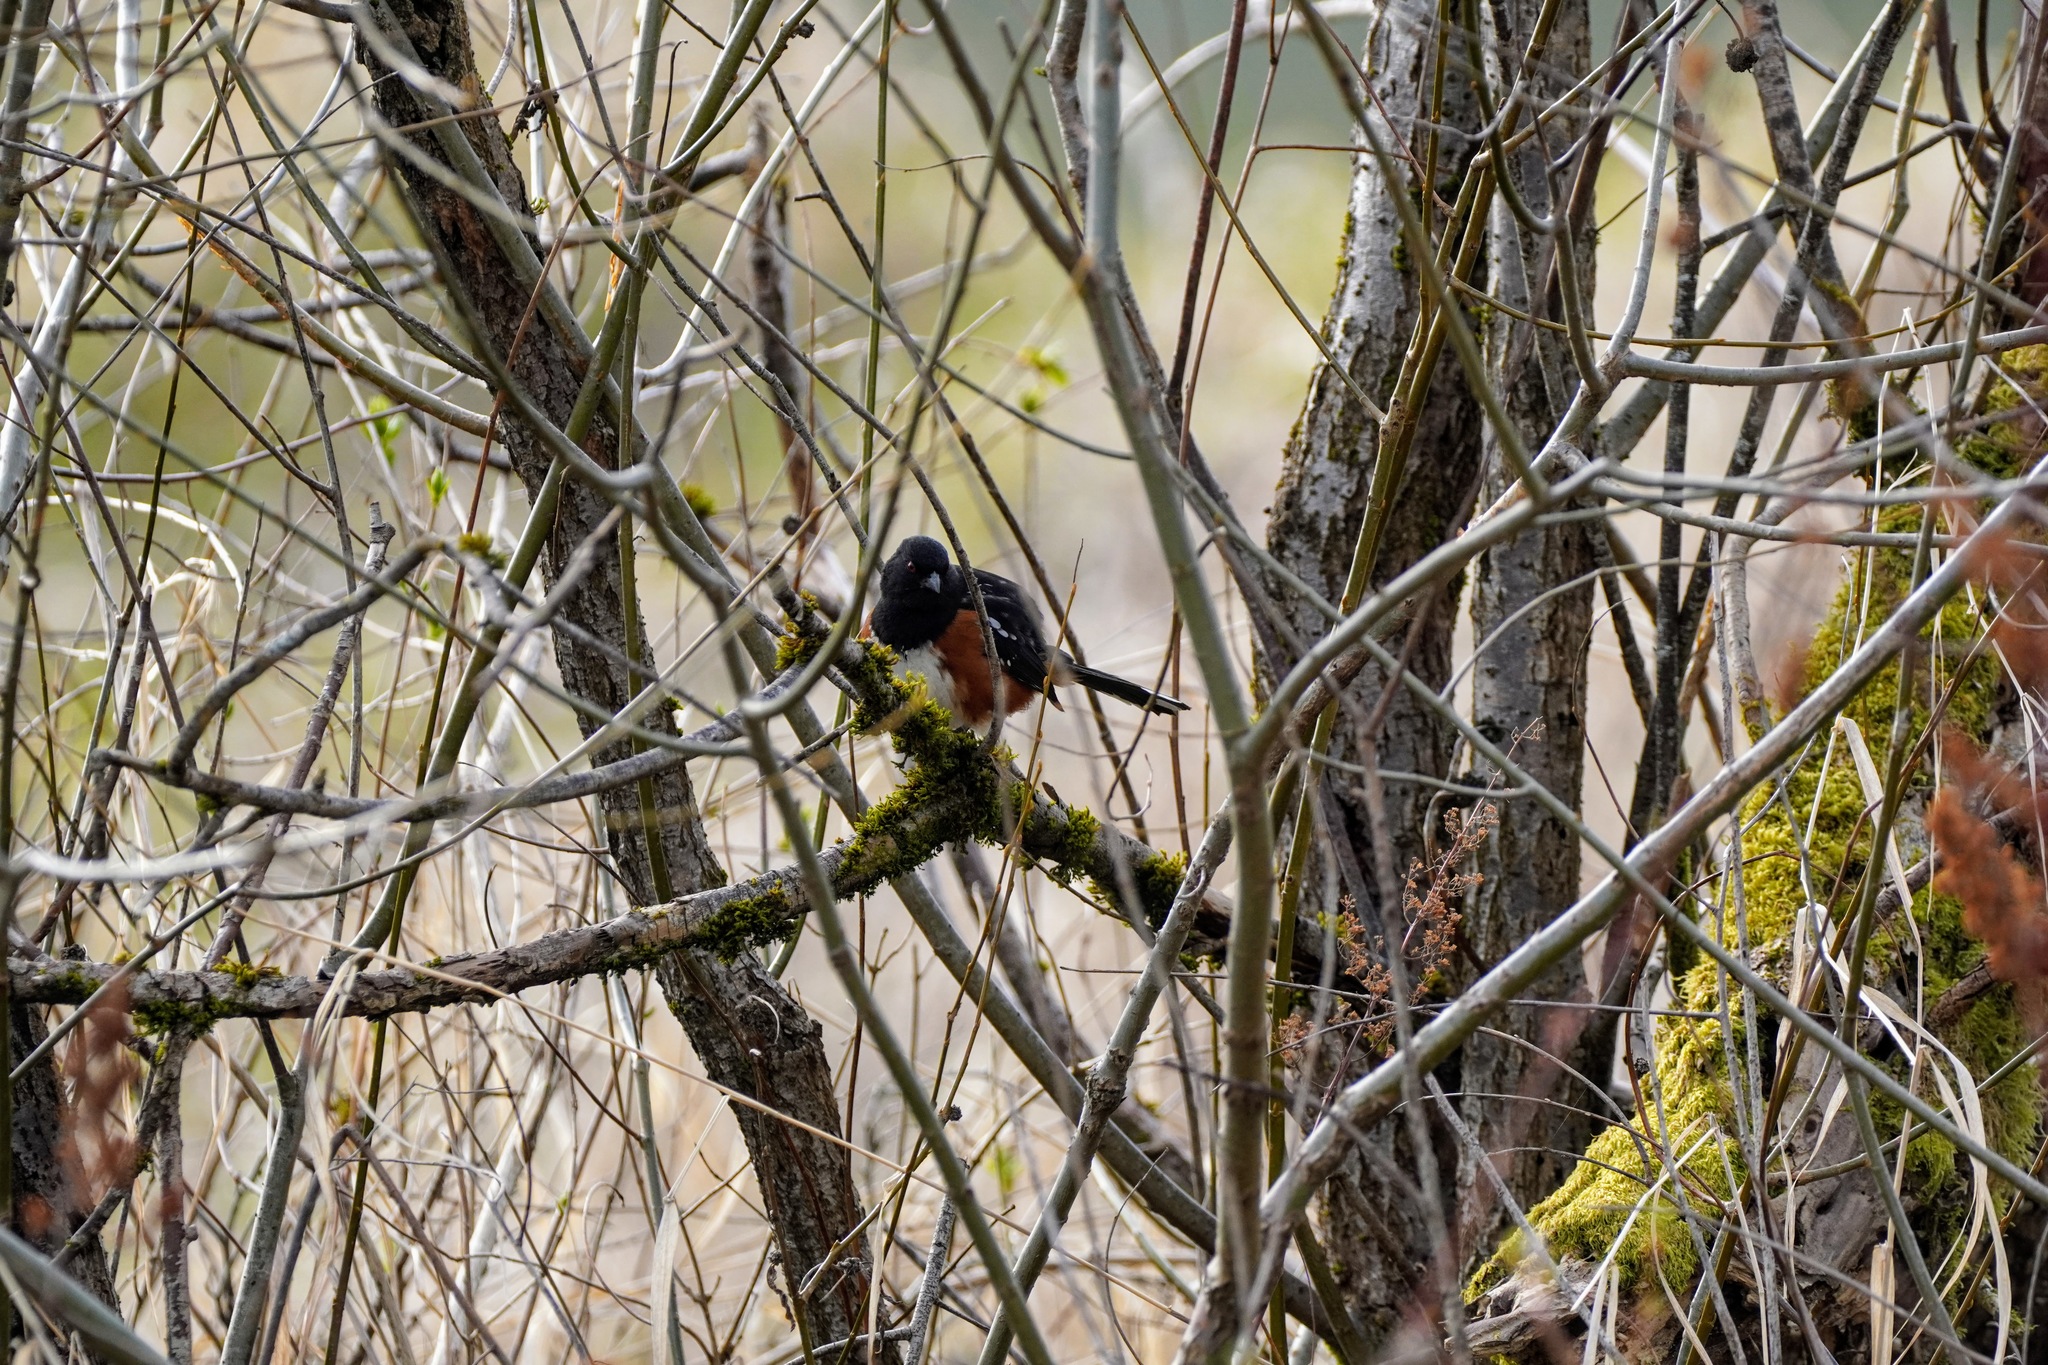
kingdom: Animalia
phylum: Chordata
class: Aves
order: Passeriformes
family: Passerellidae
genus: Pipilo
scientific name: Pipilo maculatus
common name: Spotted towhee
